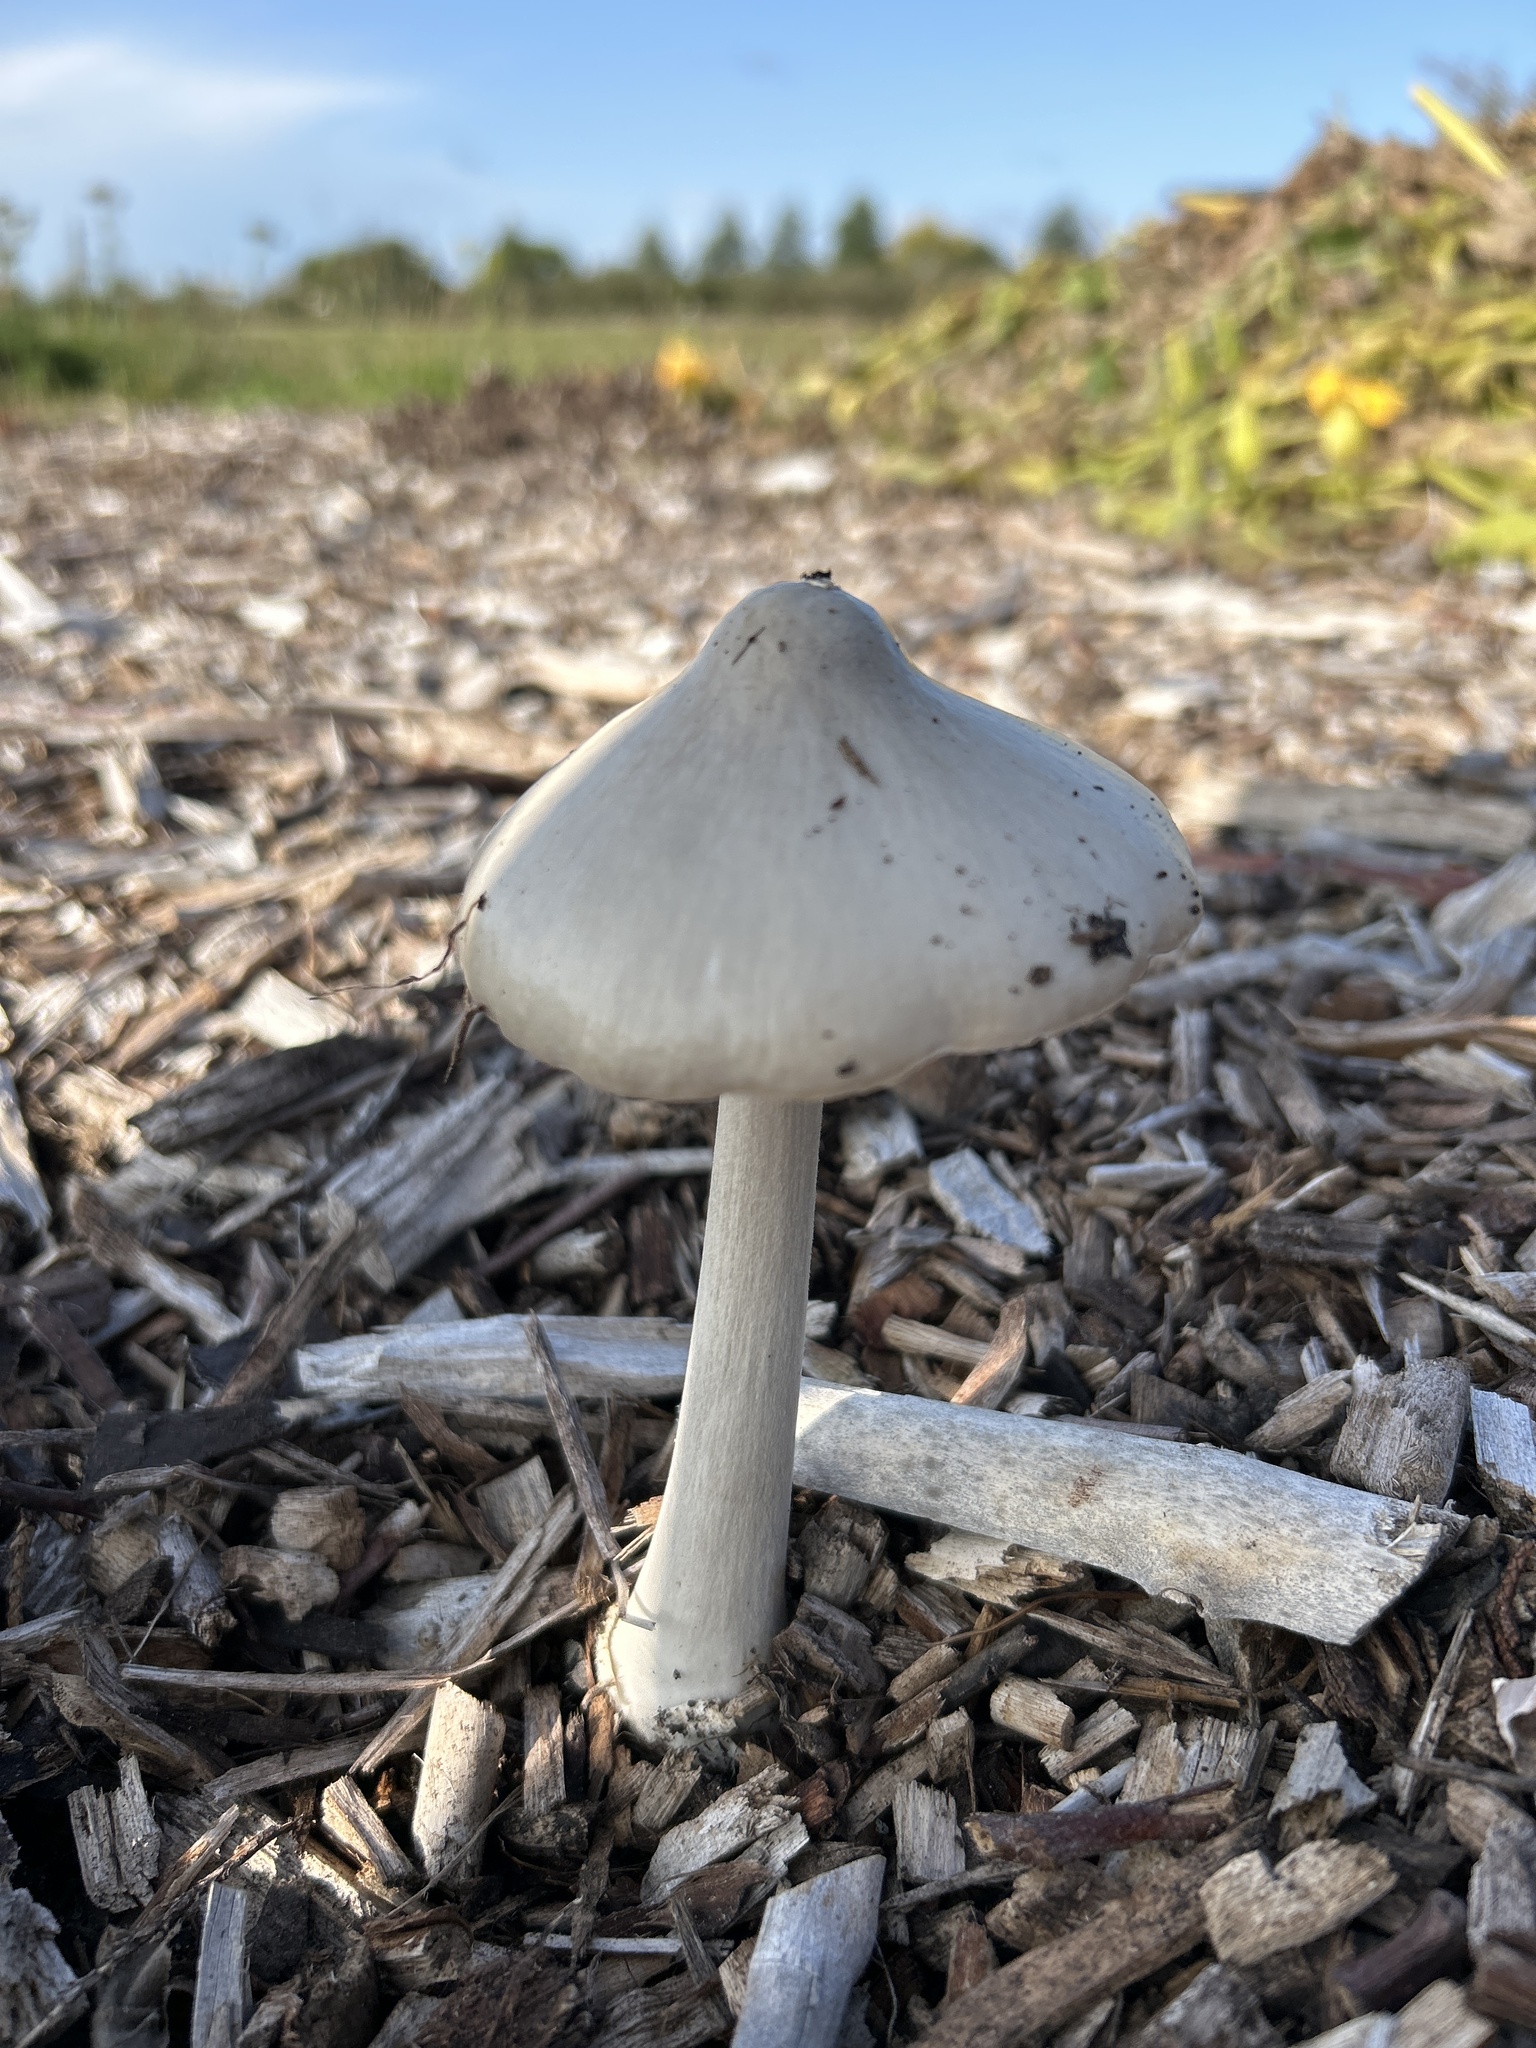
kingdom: Fungi
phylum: Basidiomycota
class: Agaricomycetes
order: Agaricales
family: Pluteaceae
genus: Volvopluteus
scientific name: Volvopluteus gloiocephalus
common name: Stubble rosegill
